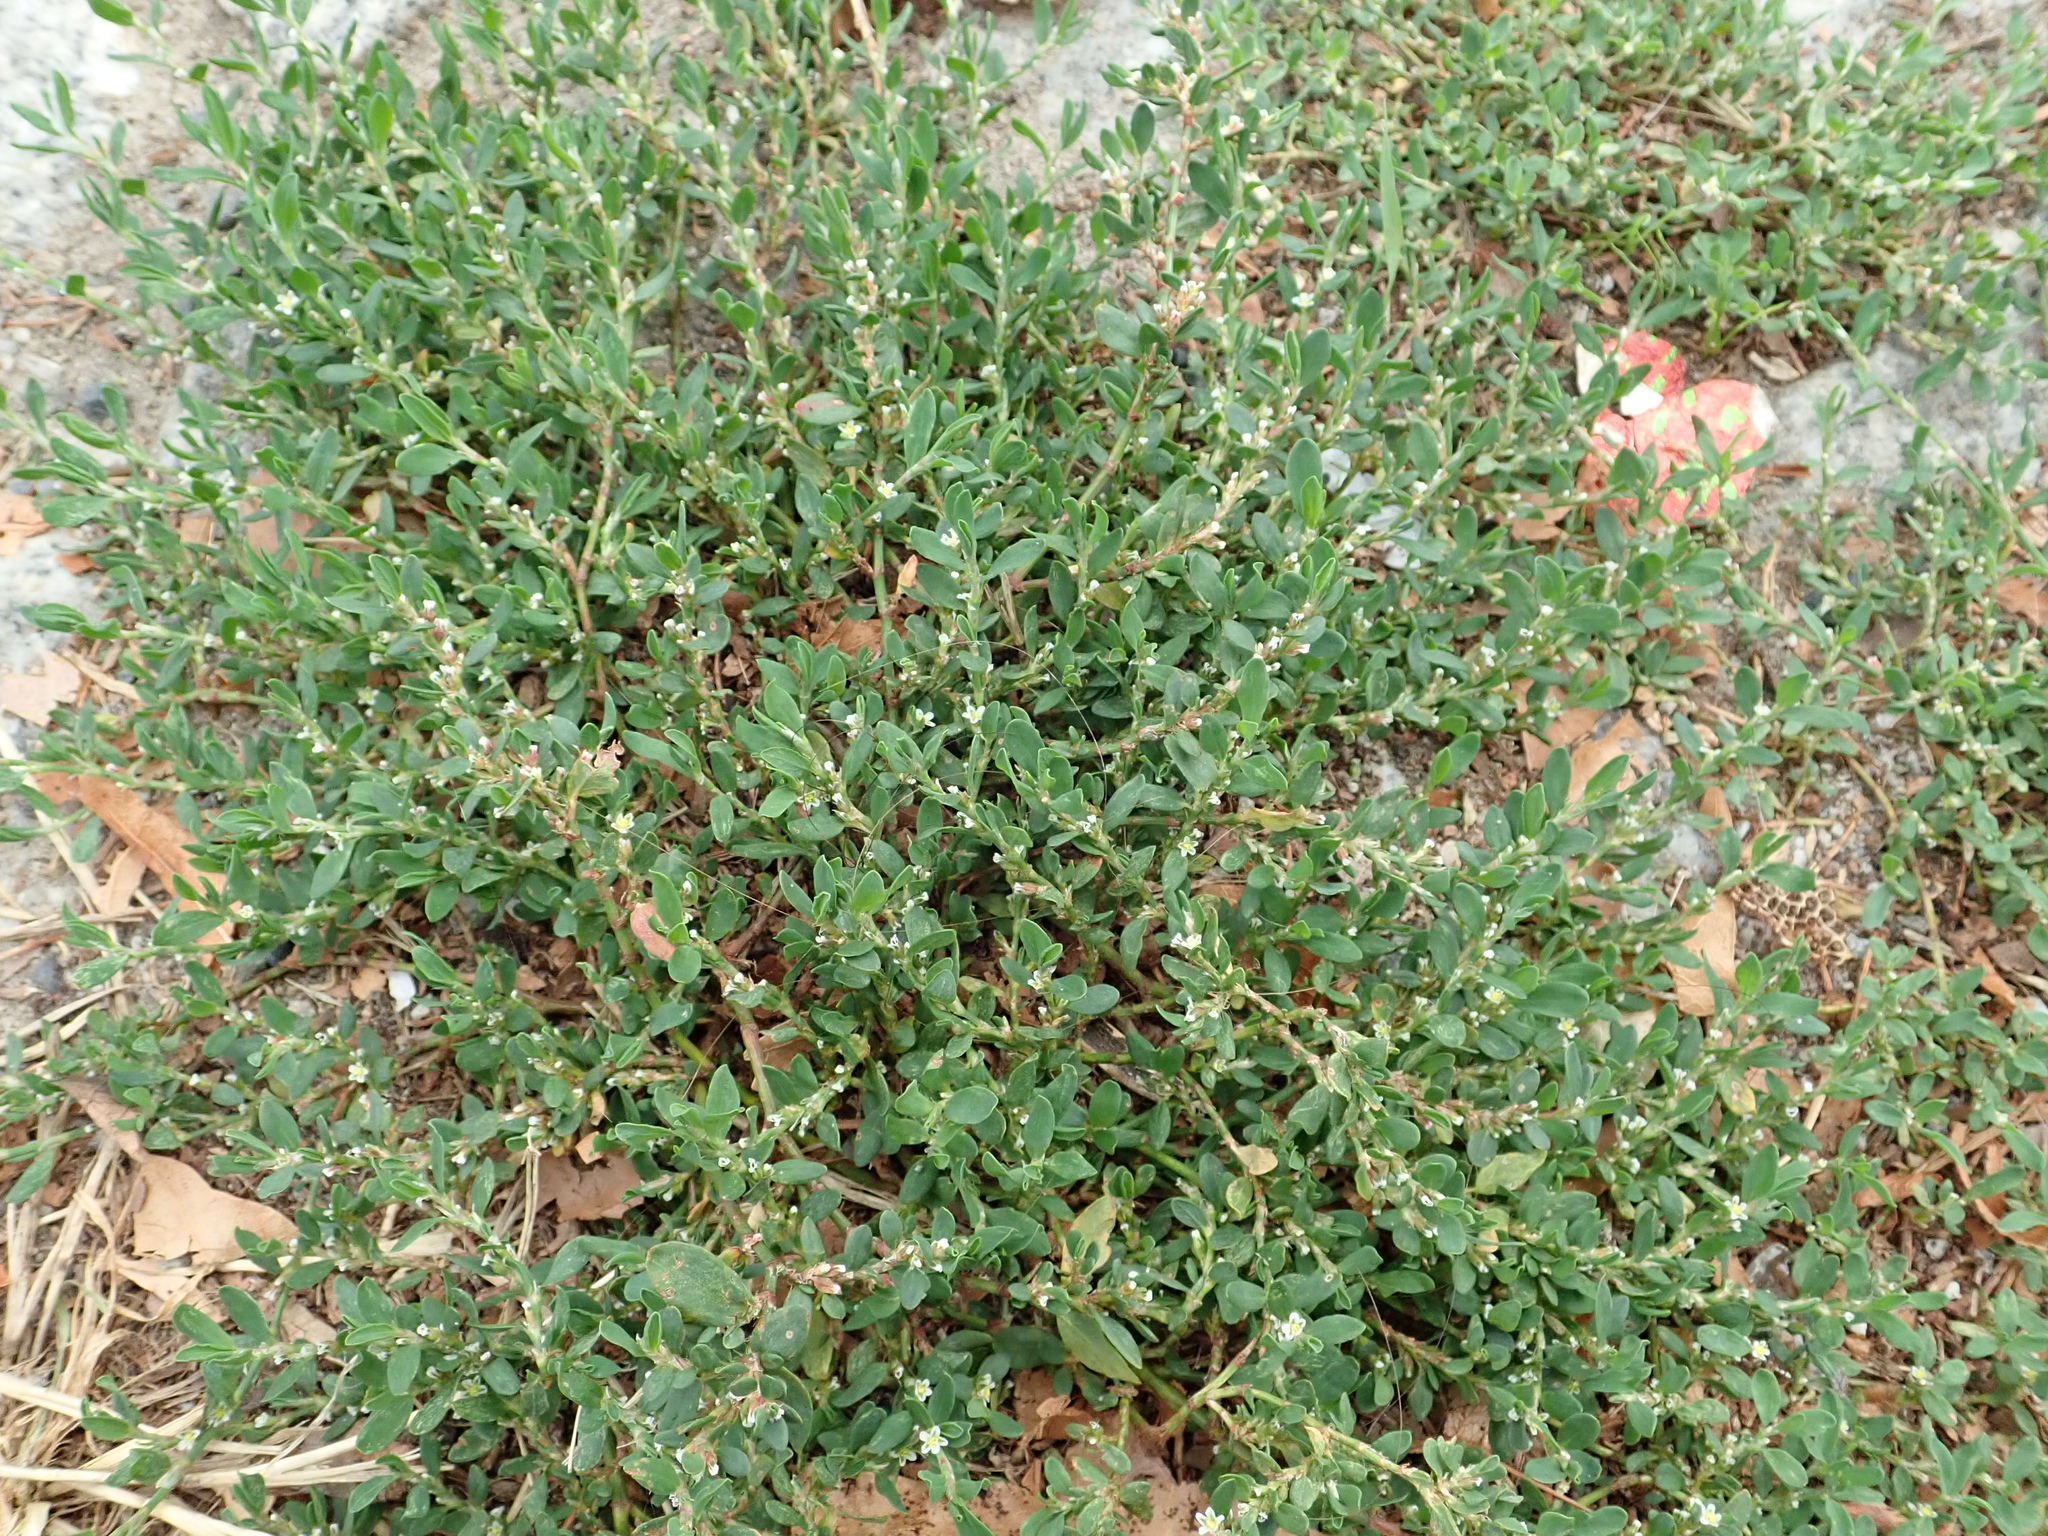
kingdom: Plantae
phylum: Tracheophyta
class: Magnoliopsida
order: Caryophyllales
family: Polygonaceae
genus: Polygonum
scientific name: Polygonum aviculare
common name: Prostrate knotweed
